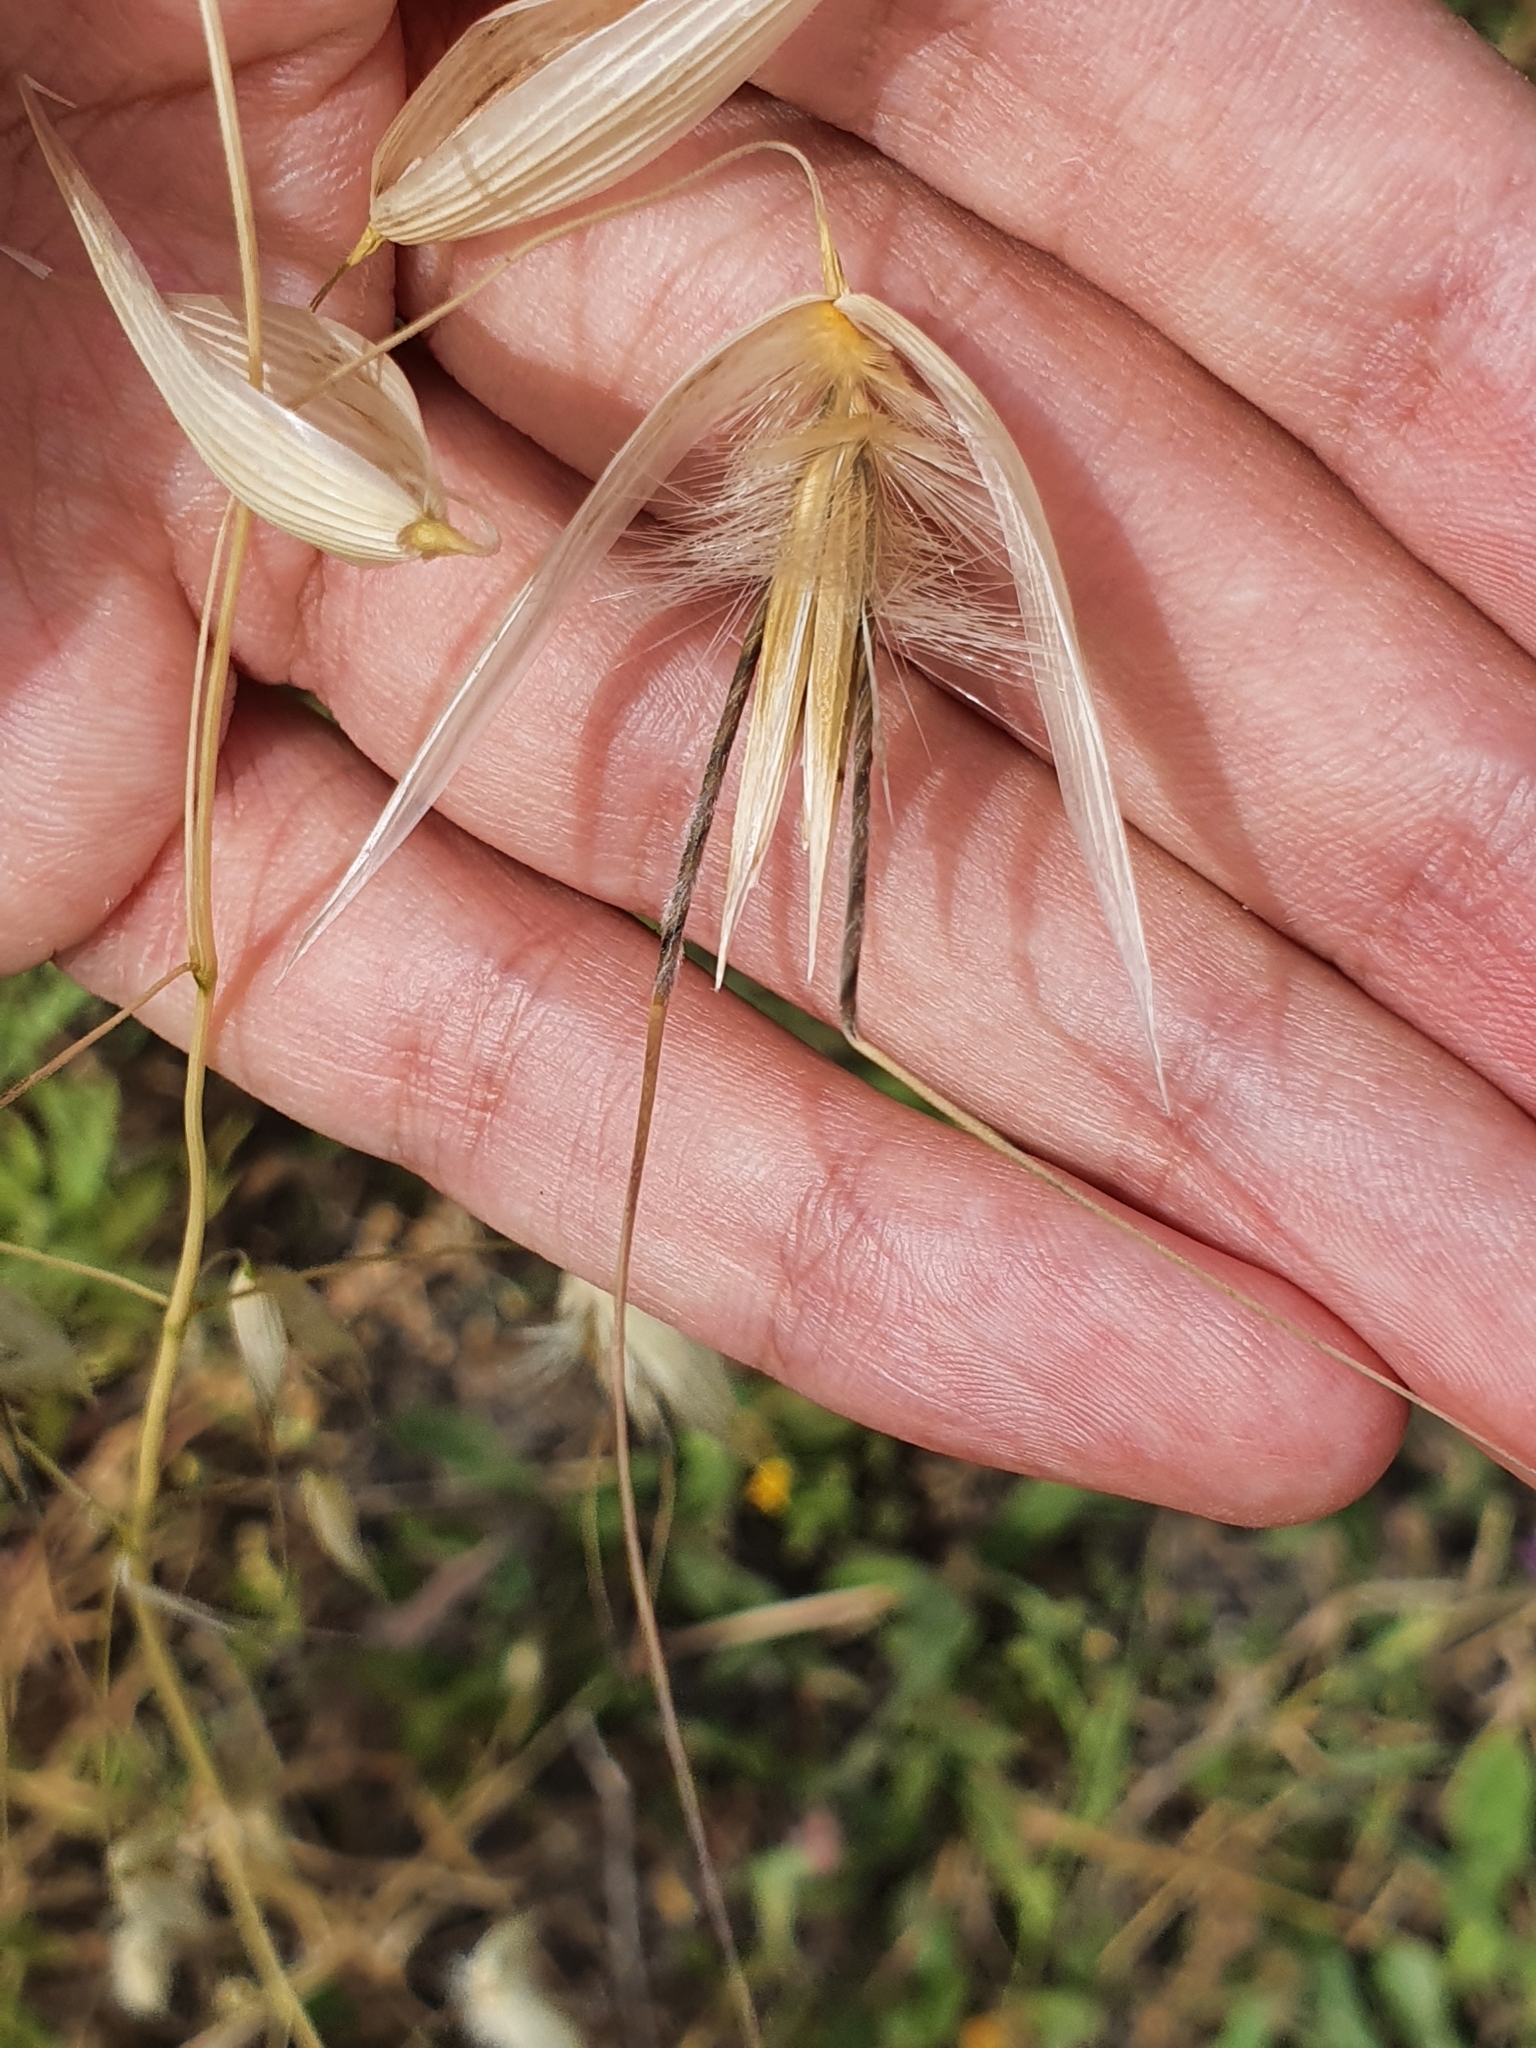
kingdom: Plantae
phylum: Tracheophyta
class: Liliopsida
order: Poales
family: Poaceae
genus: Avena
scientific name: Avena sterilis
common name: Animated oat
